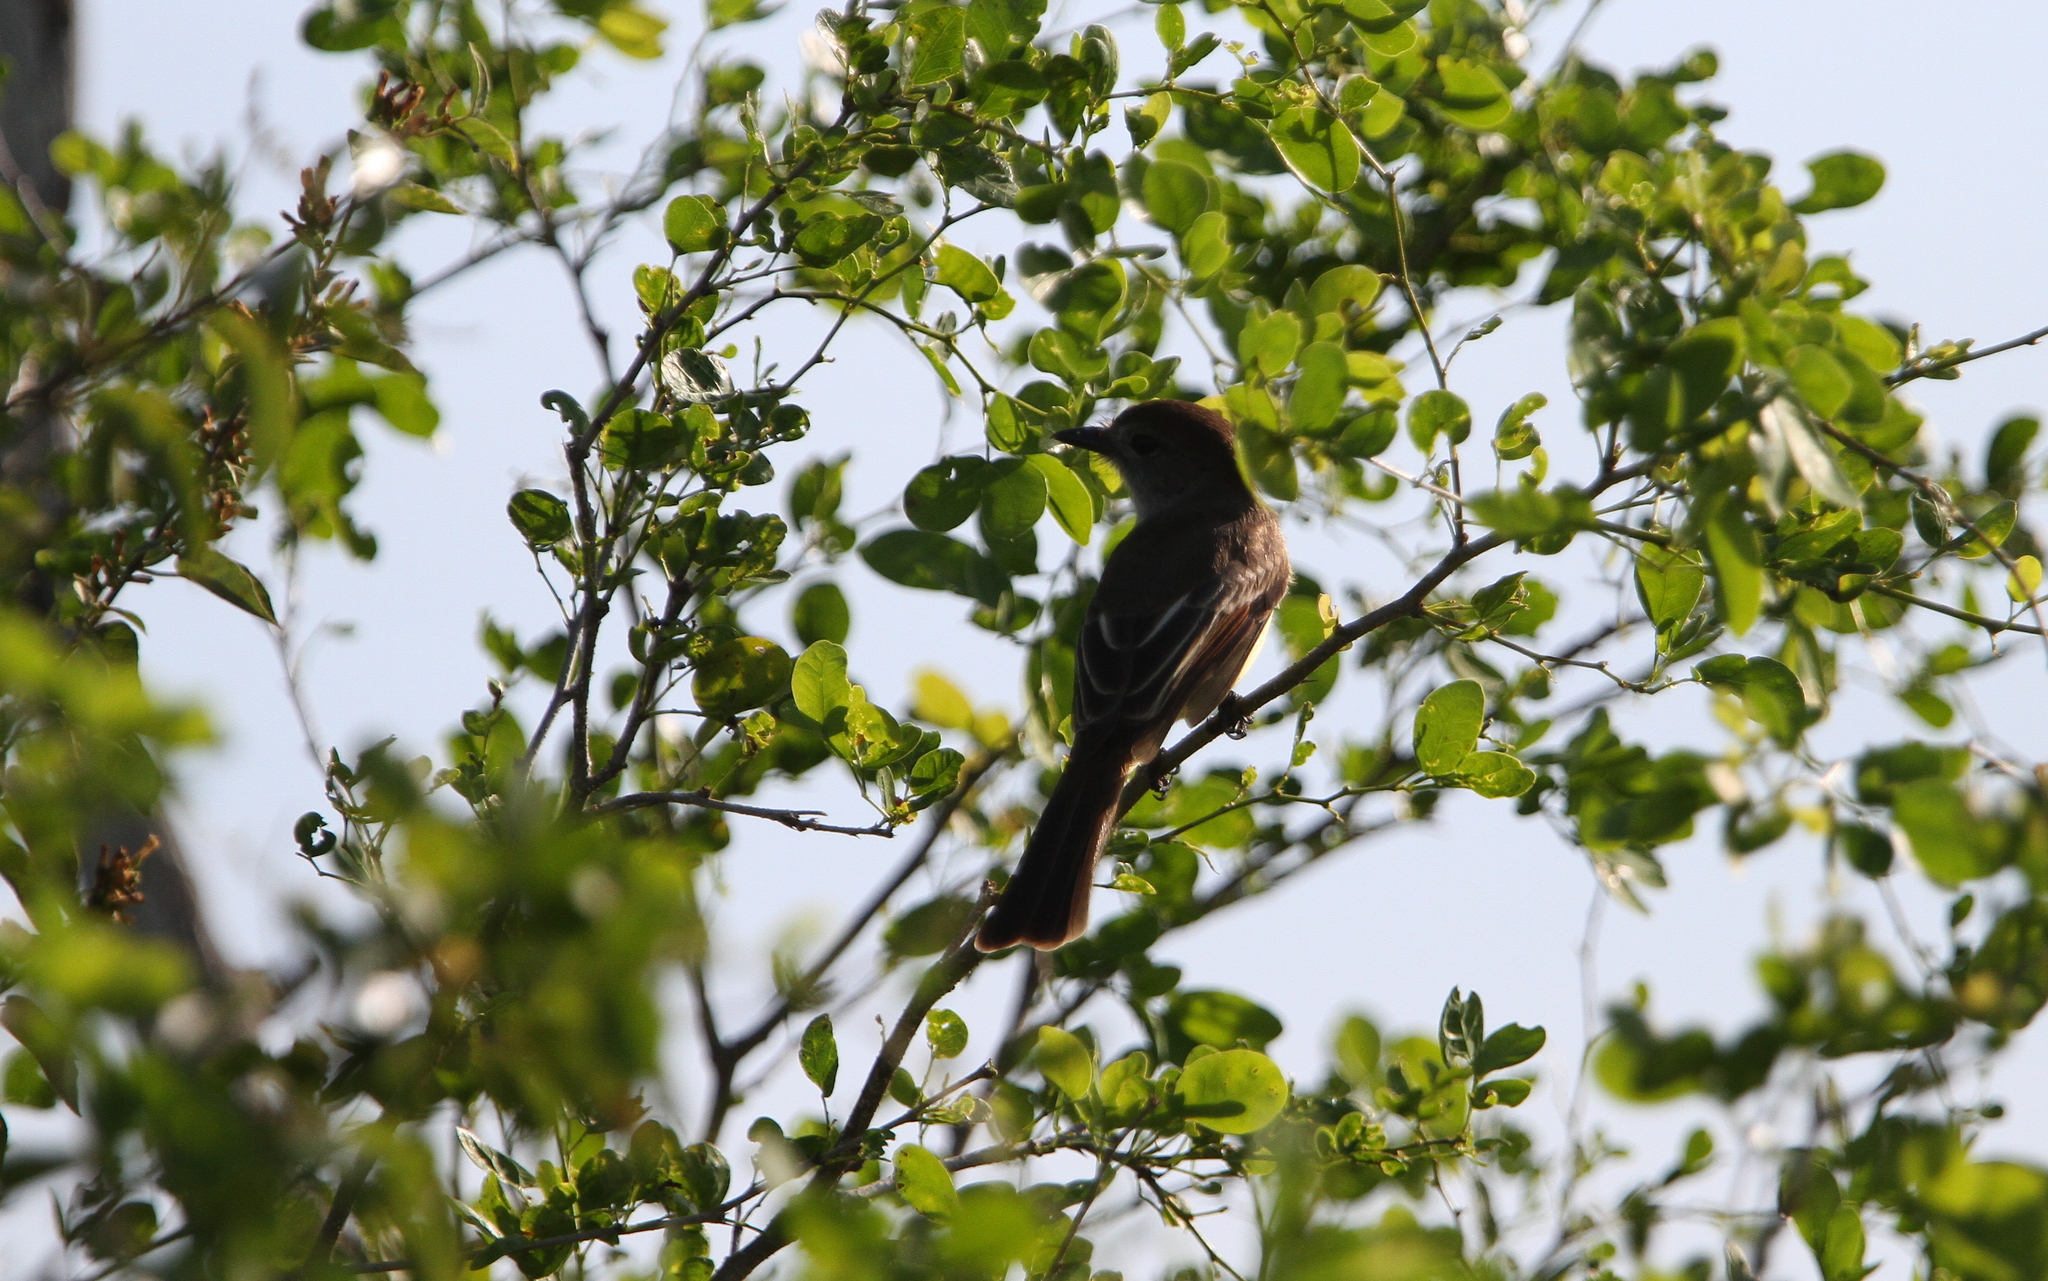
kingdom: Animalia
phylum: Chordata
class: Aves
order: Passeriformes
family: Tyrannidae
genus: Myiarchus
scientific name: Myiarchus yucatanensis
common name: Yucatan flycatcher
